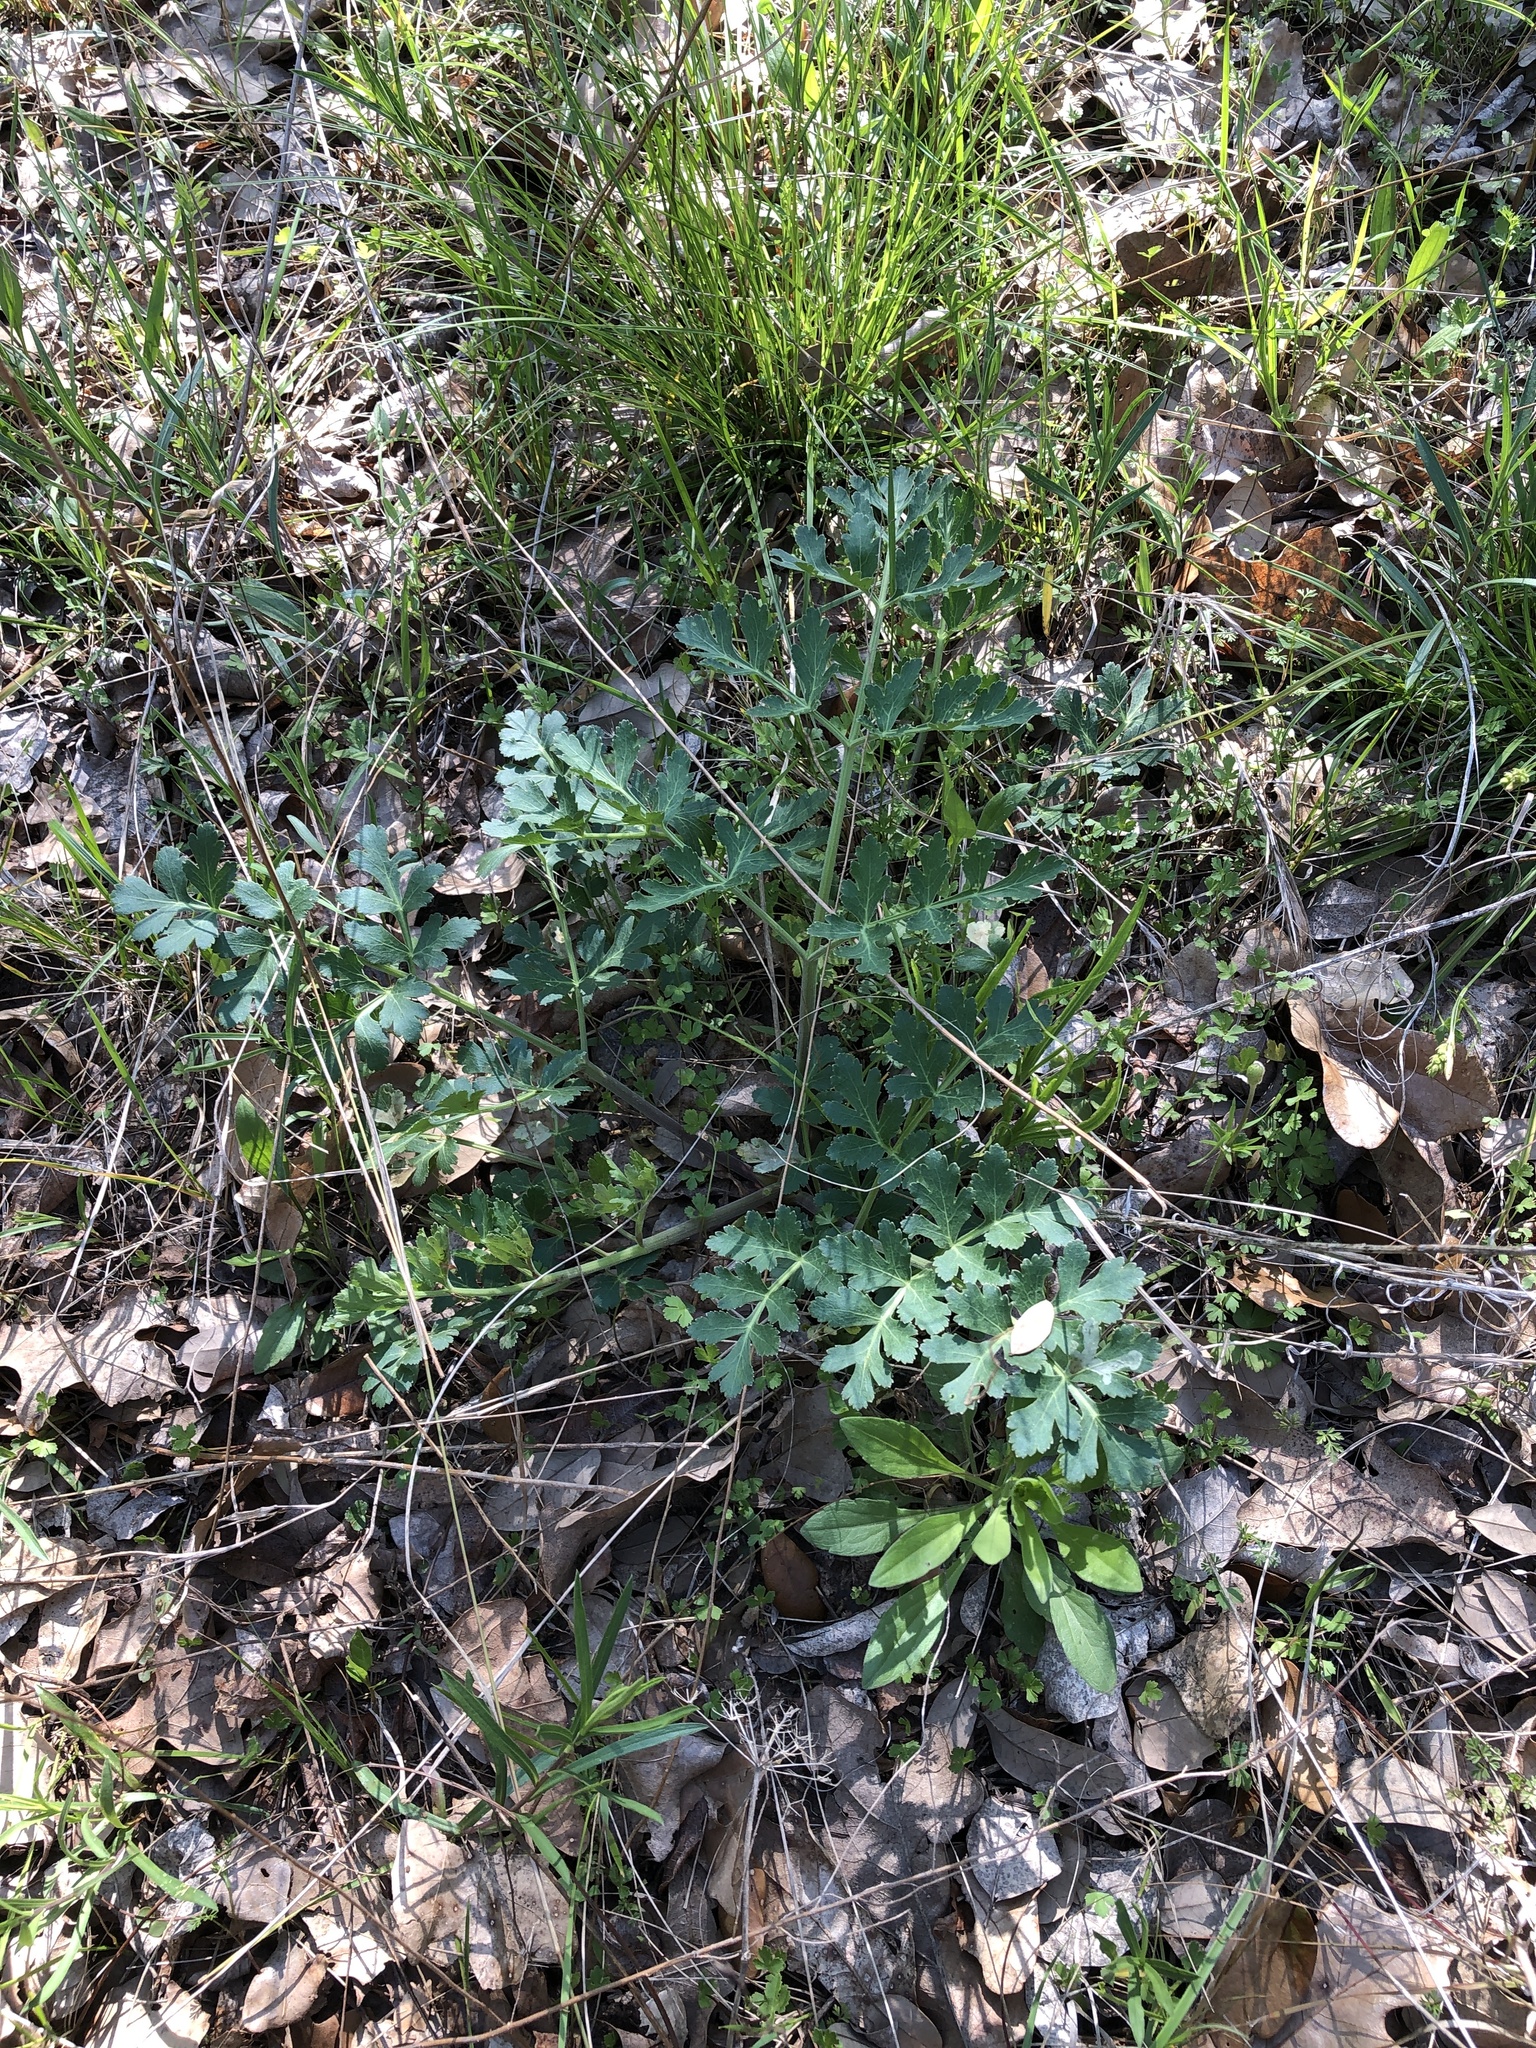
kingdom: Plantae
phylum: Tracheophyta
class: Magnoliopsida
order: Apiales
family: Apiaceae
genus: Polytaenia
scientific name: Polytaenia texana
